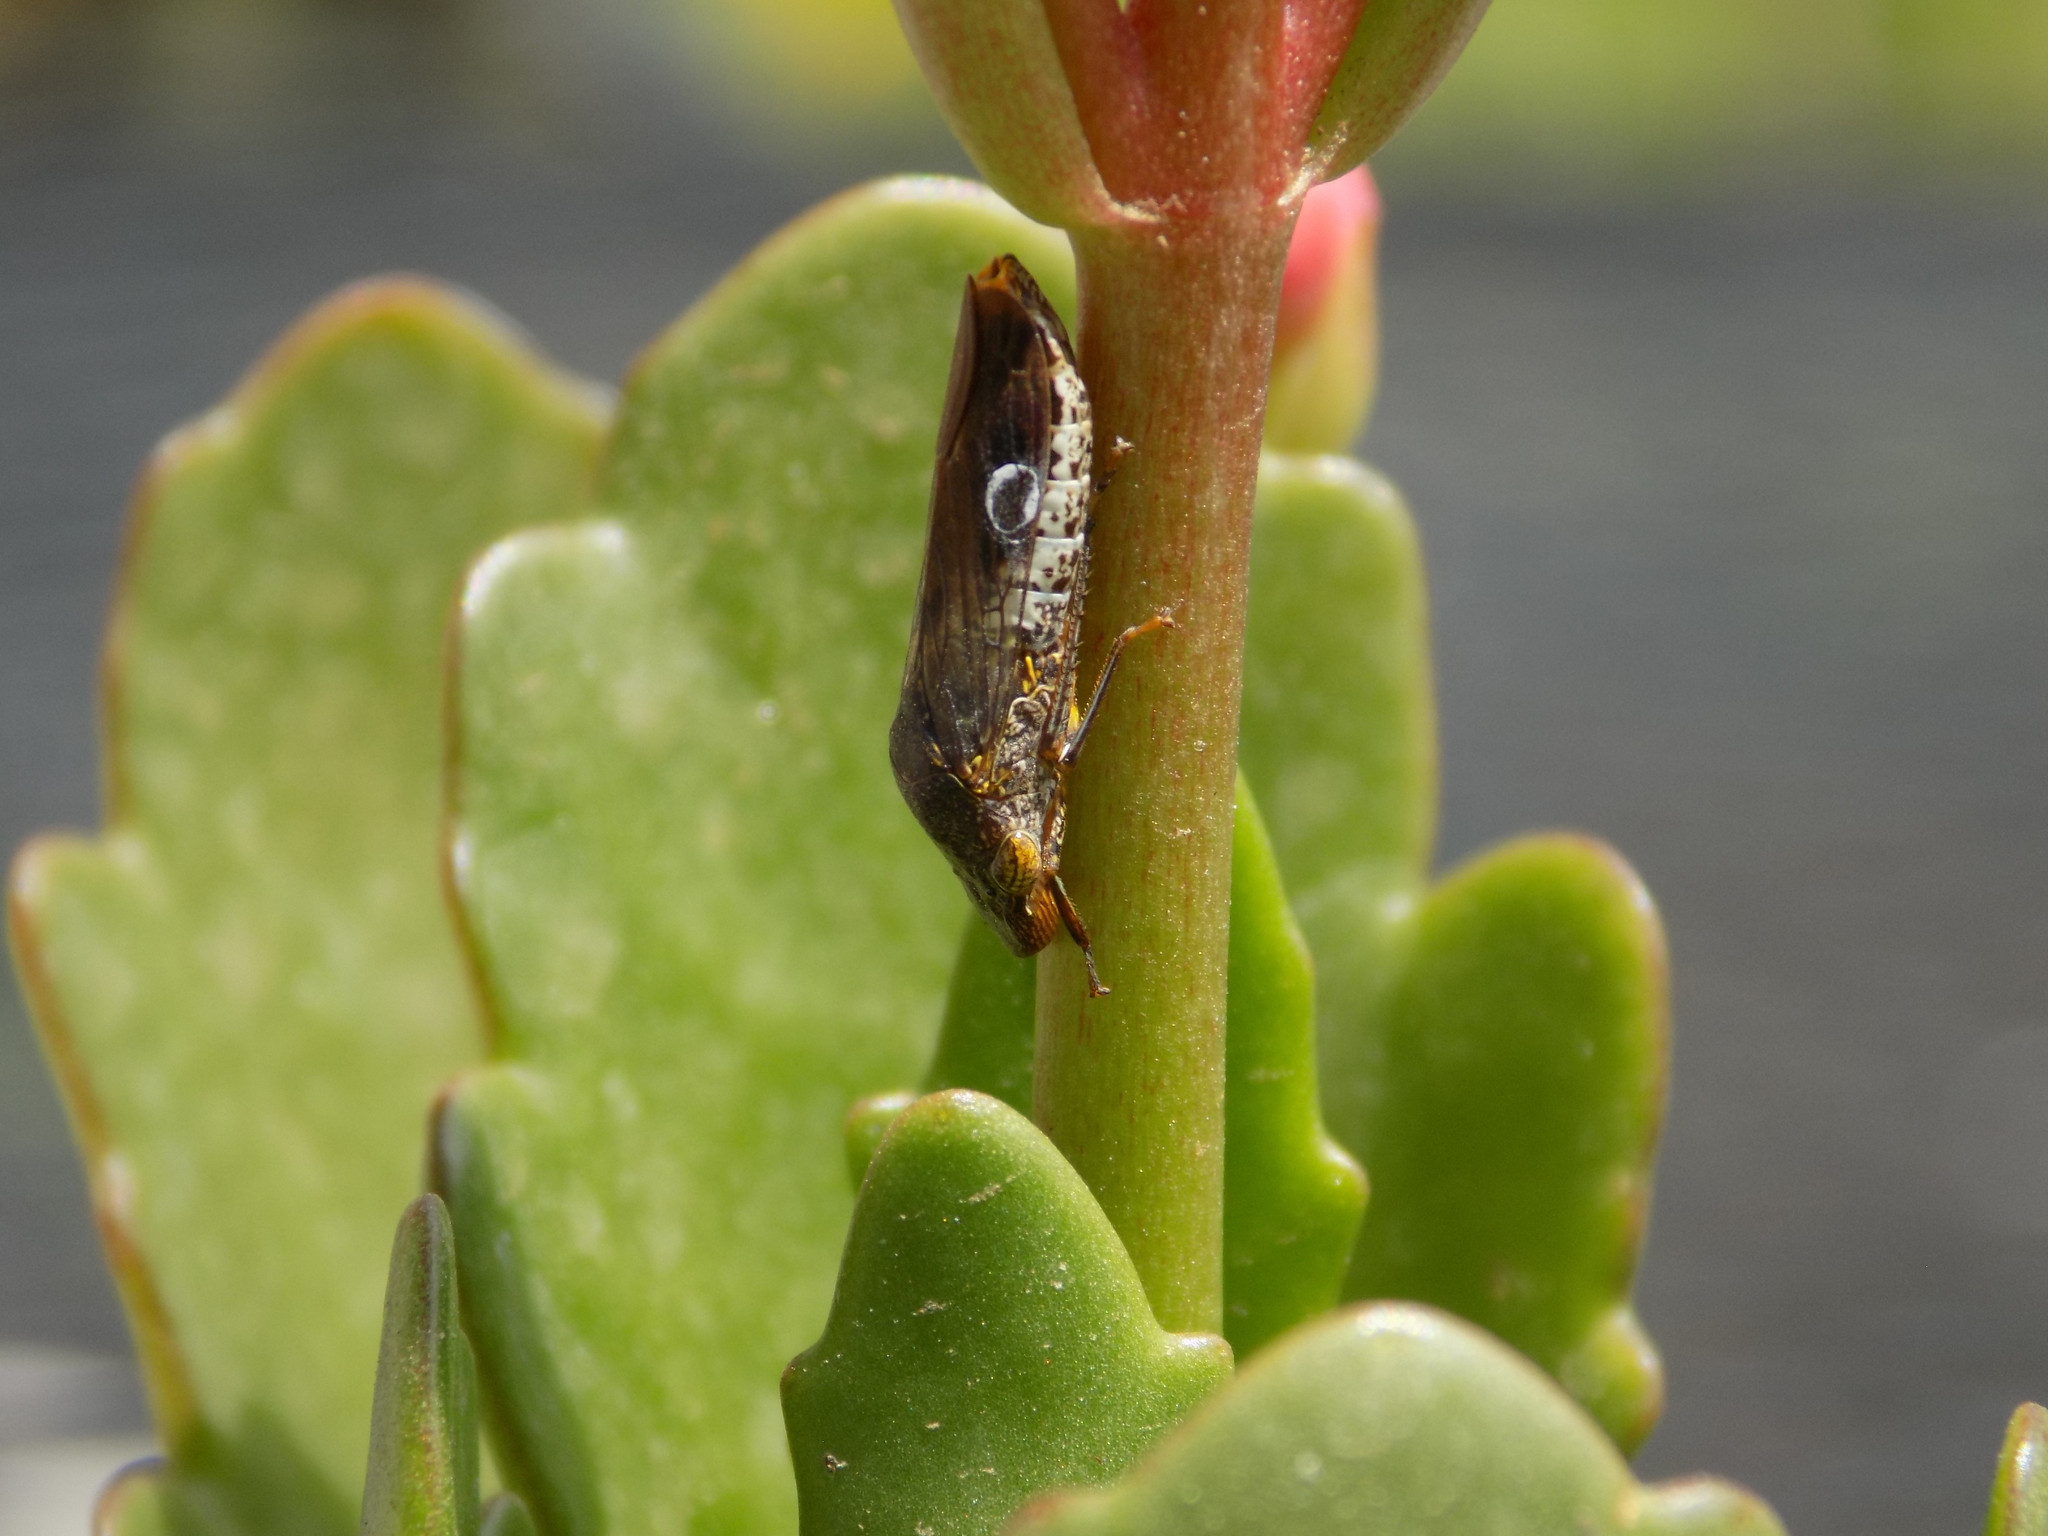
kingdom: Animalia
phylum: Arthropoda
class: Insecta
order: Hemiptera
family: Cicadellidae
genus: Homalodisca
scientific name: Homalodisca vitripennis
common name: Glassy-winged sharpshooter
